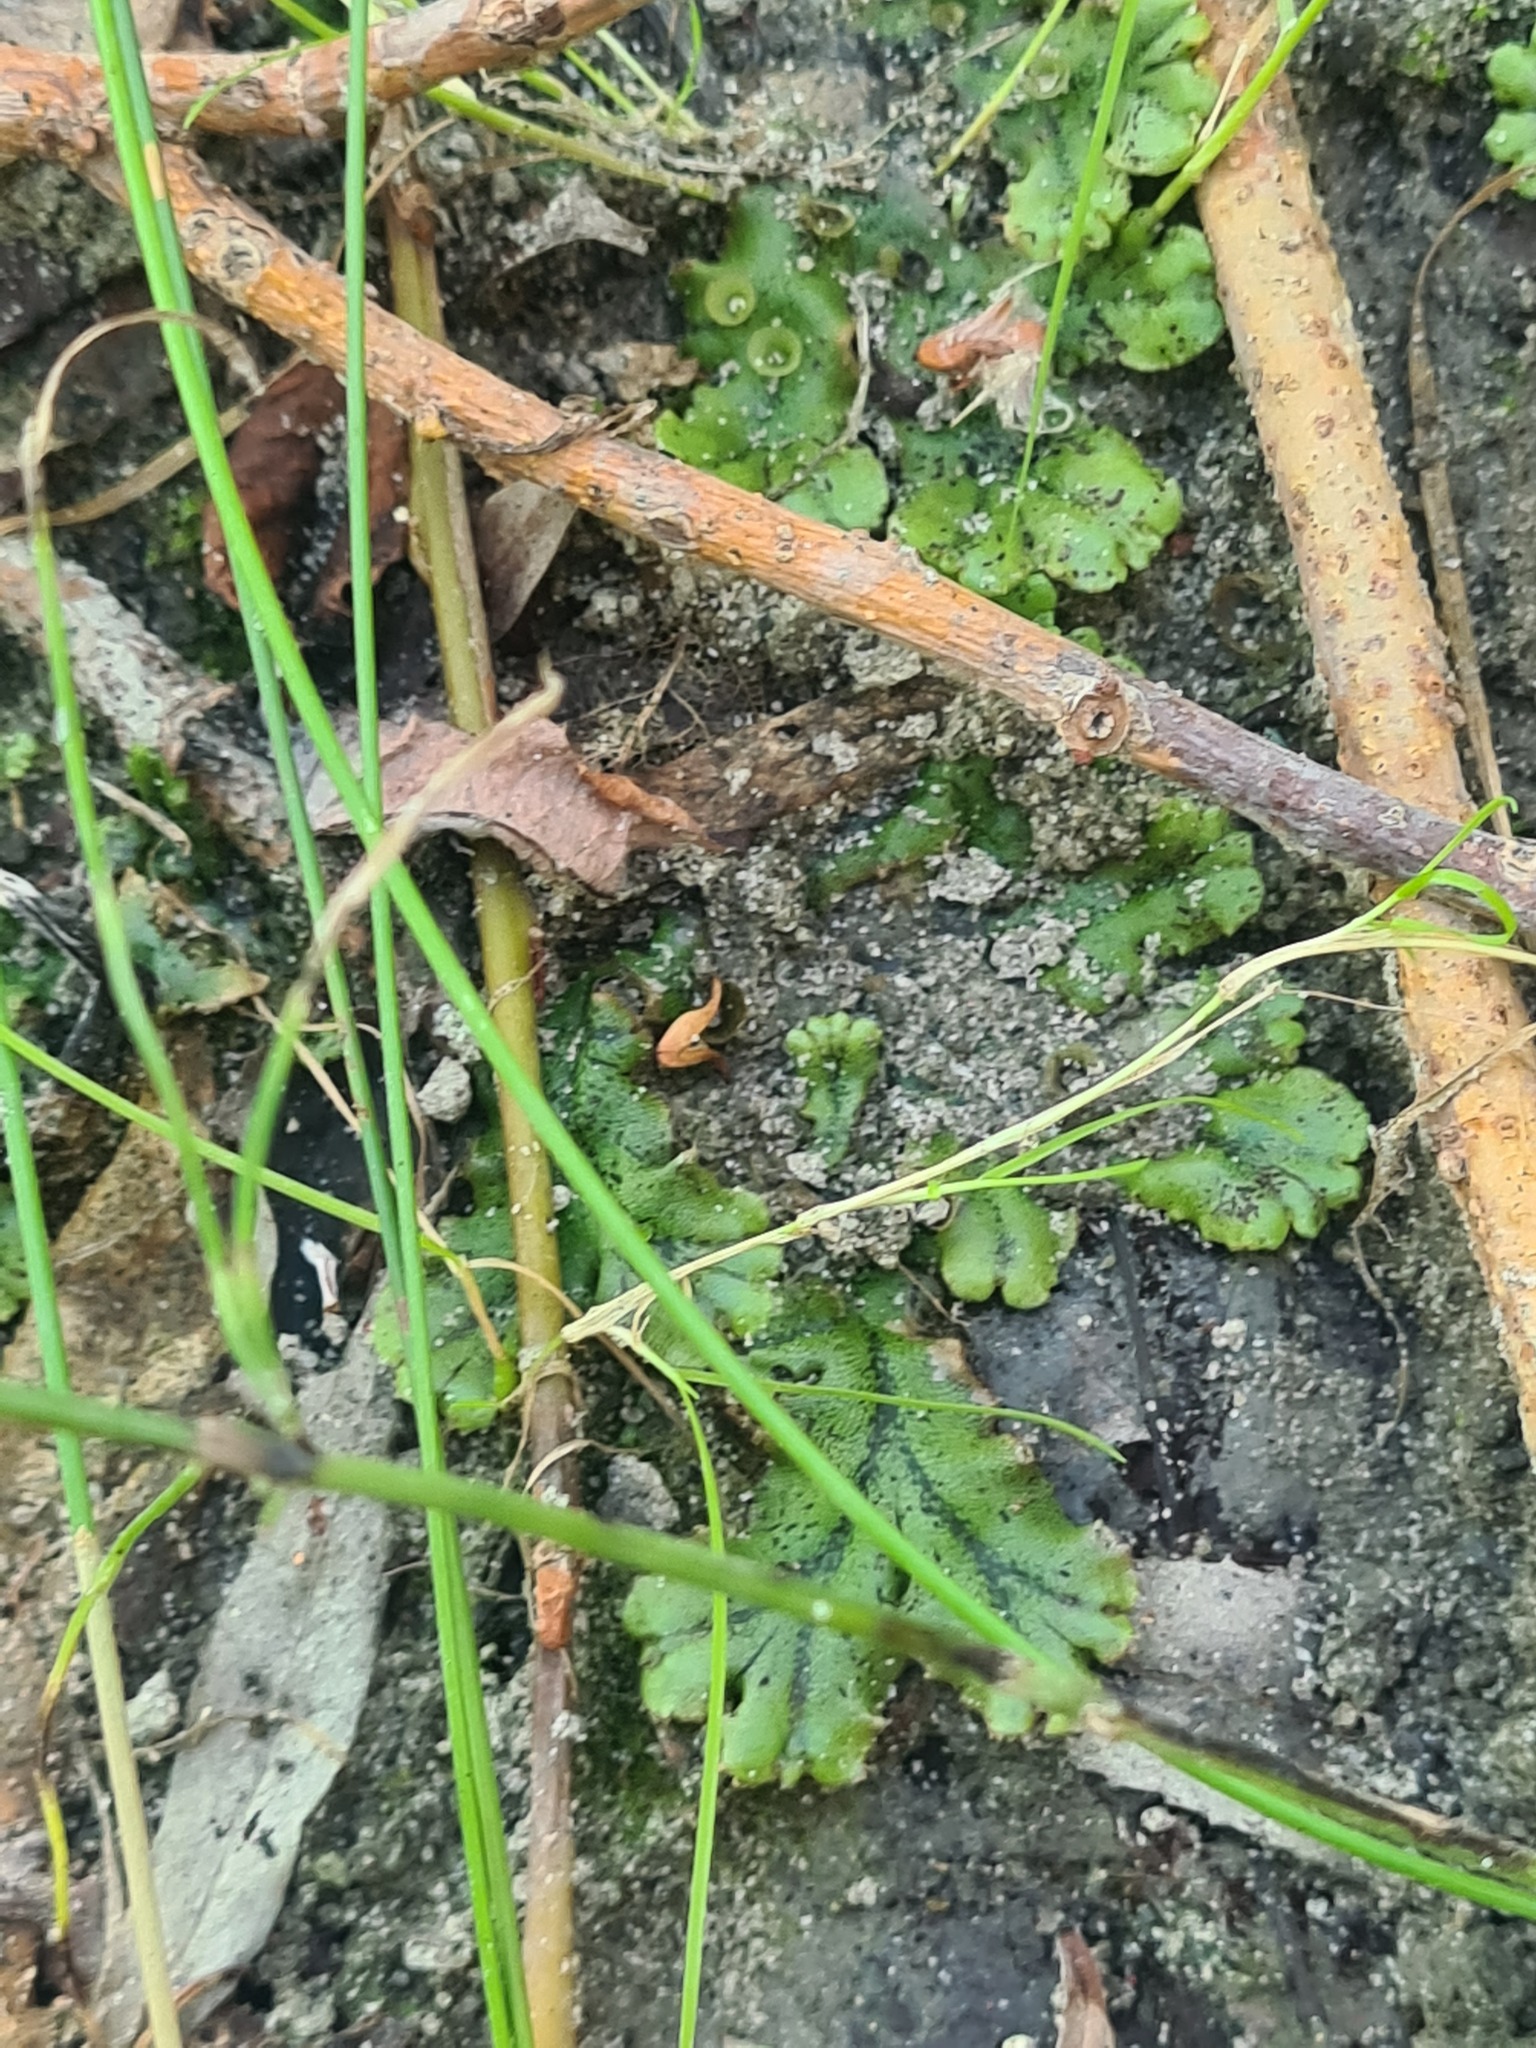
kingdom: Plantae
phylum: Marchantiophyta
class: Marchantiopsida
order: Marchantiales
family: Marchantiaceae
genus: Marchantia
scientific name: Marchantia polymorpha
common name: Common liverwort
